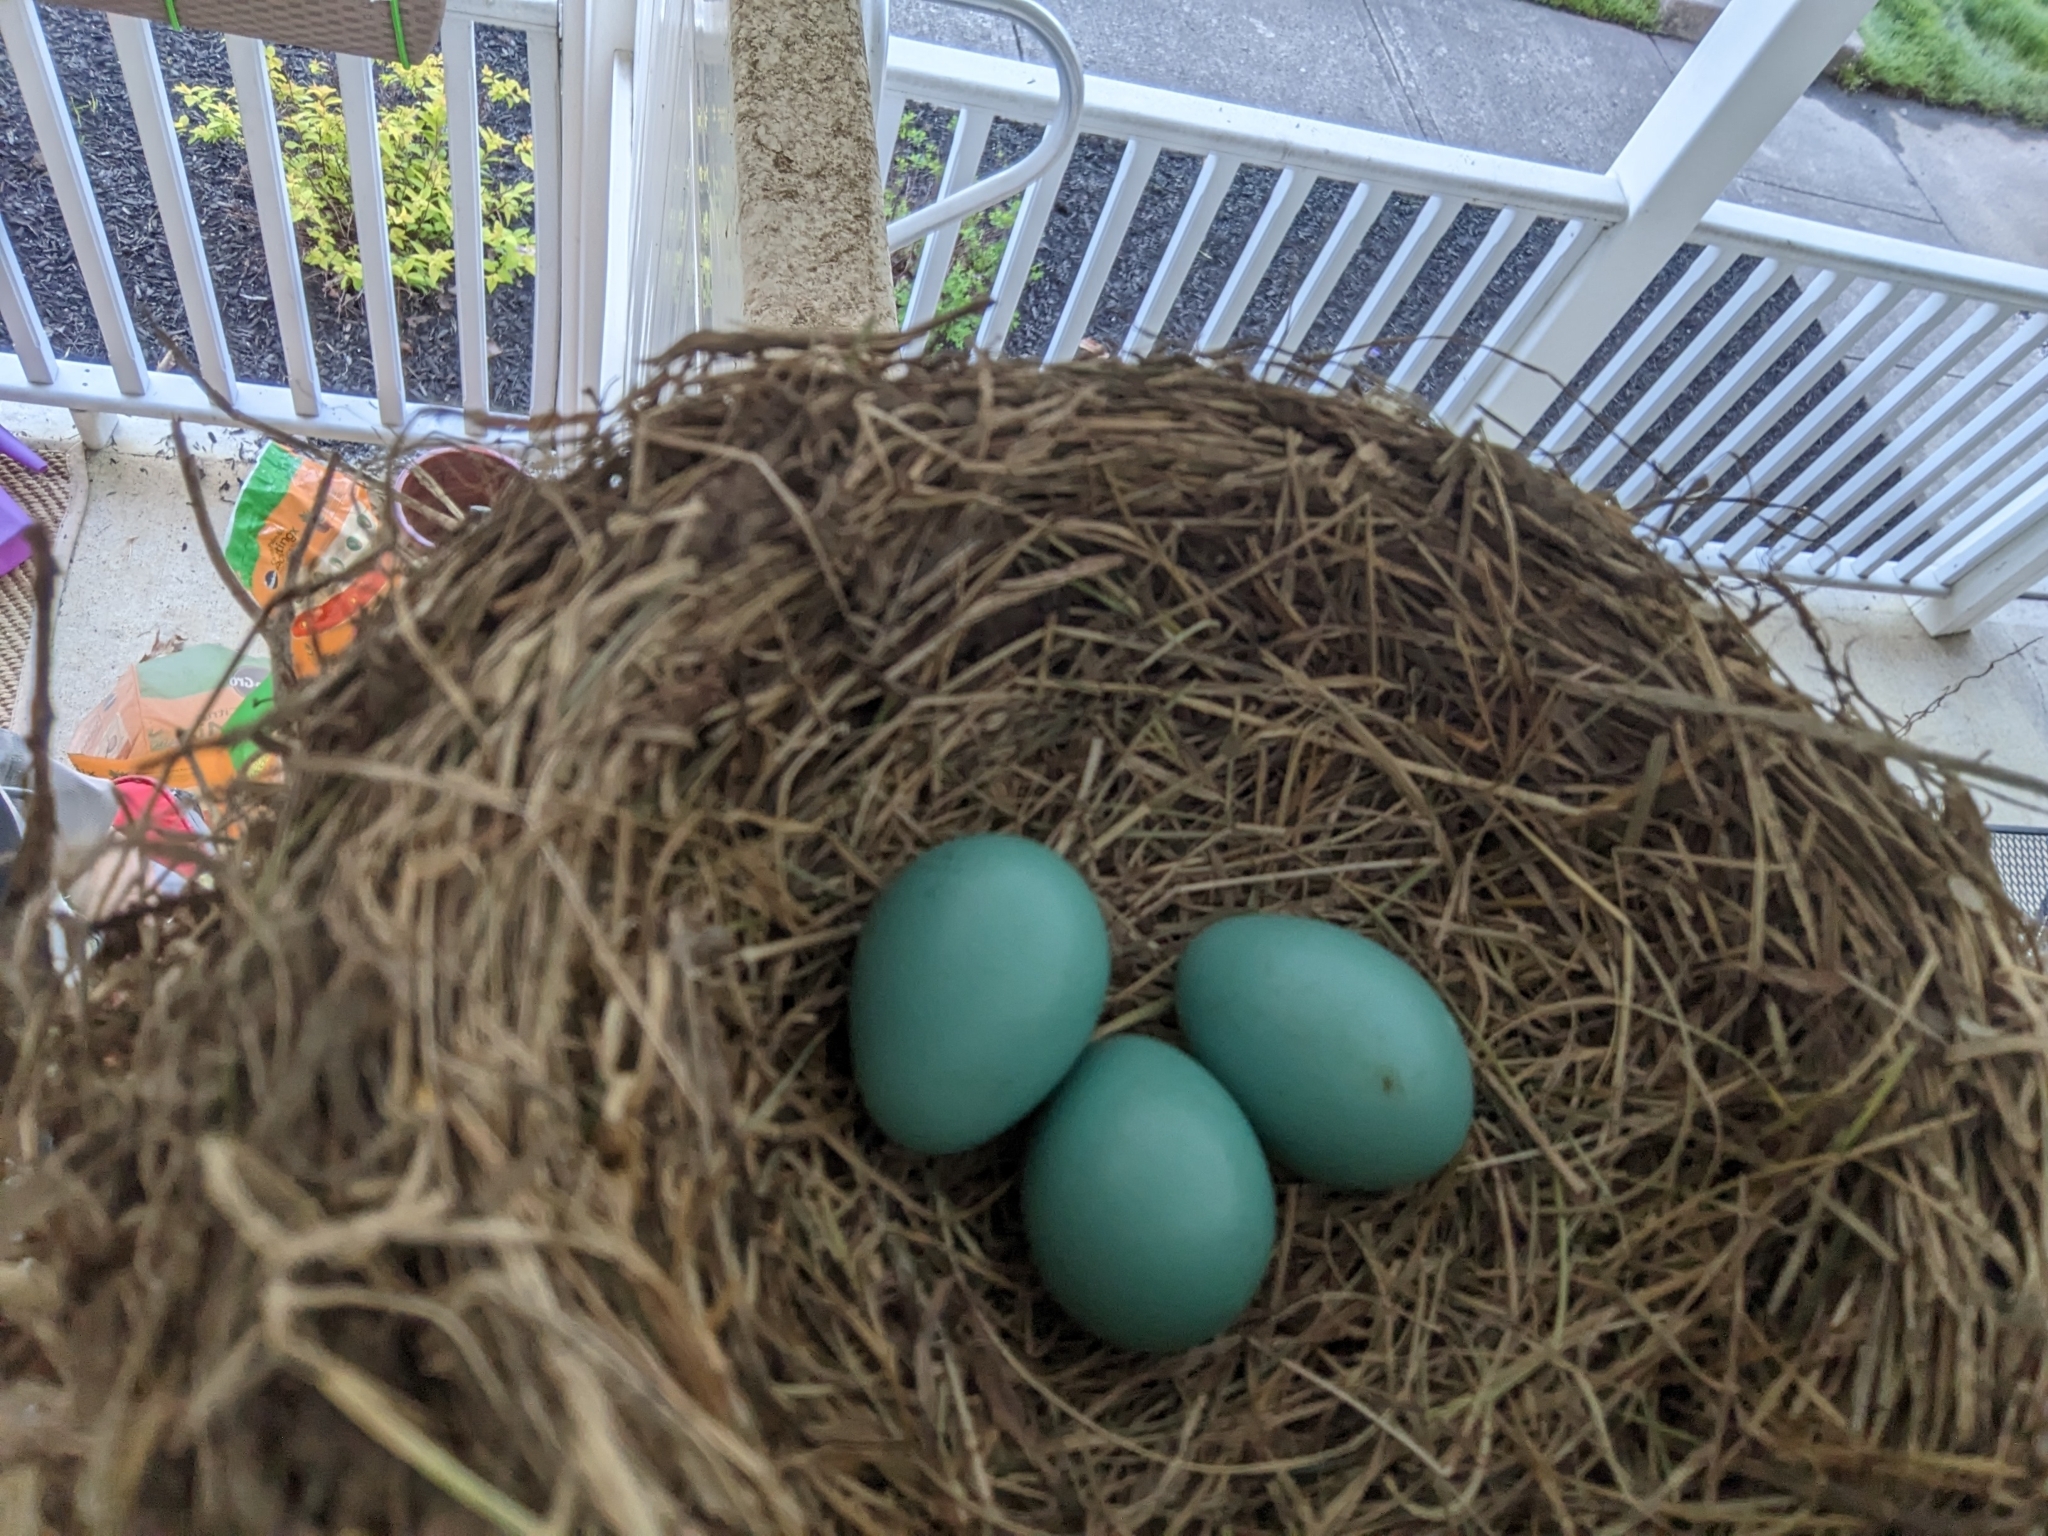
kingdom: Animalia
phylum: Chordata
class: Aves
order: Passeriformes
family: Turdidae
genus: Turdus
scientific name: Turdus migratorius
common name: American robin
